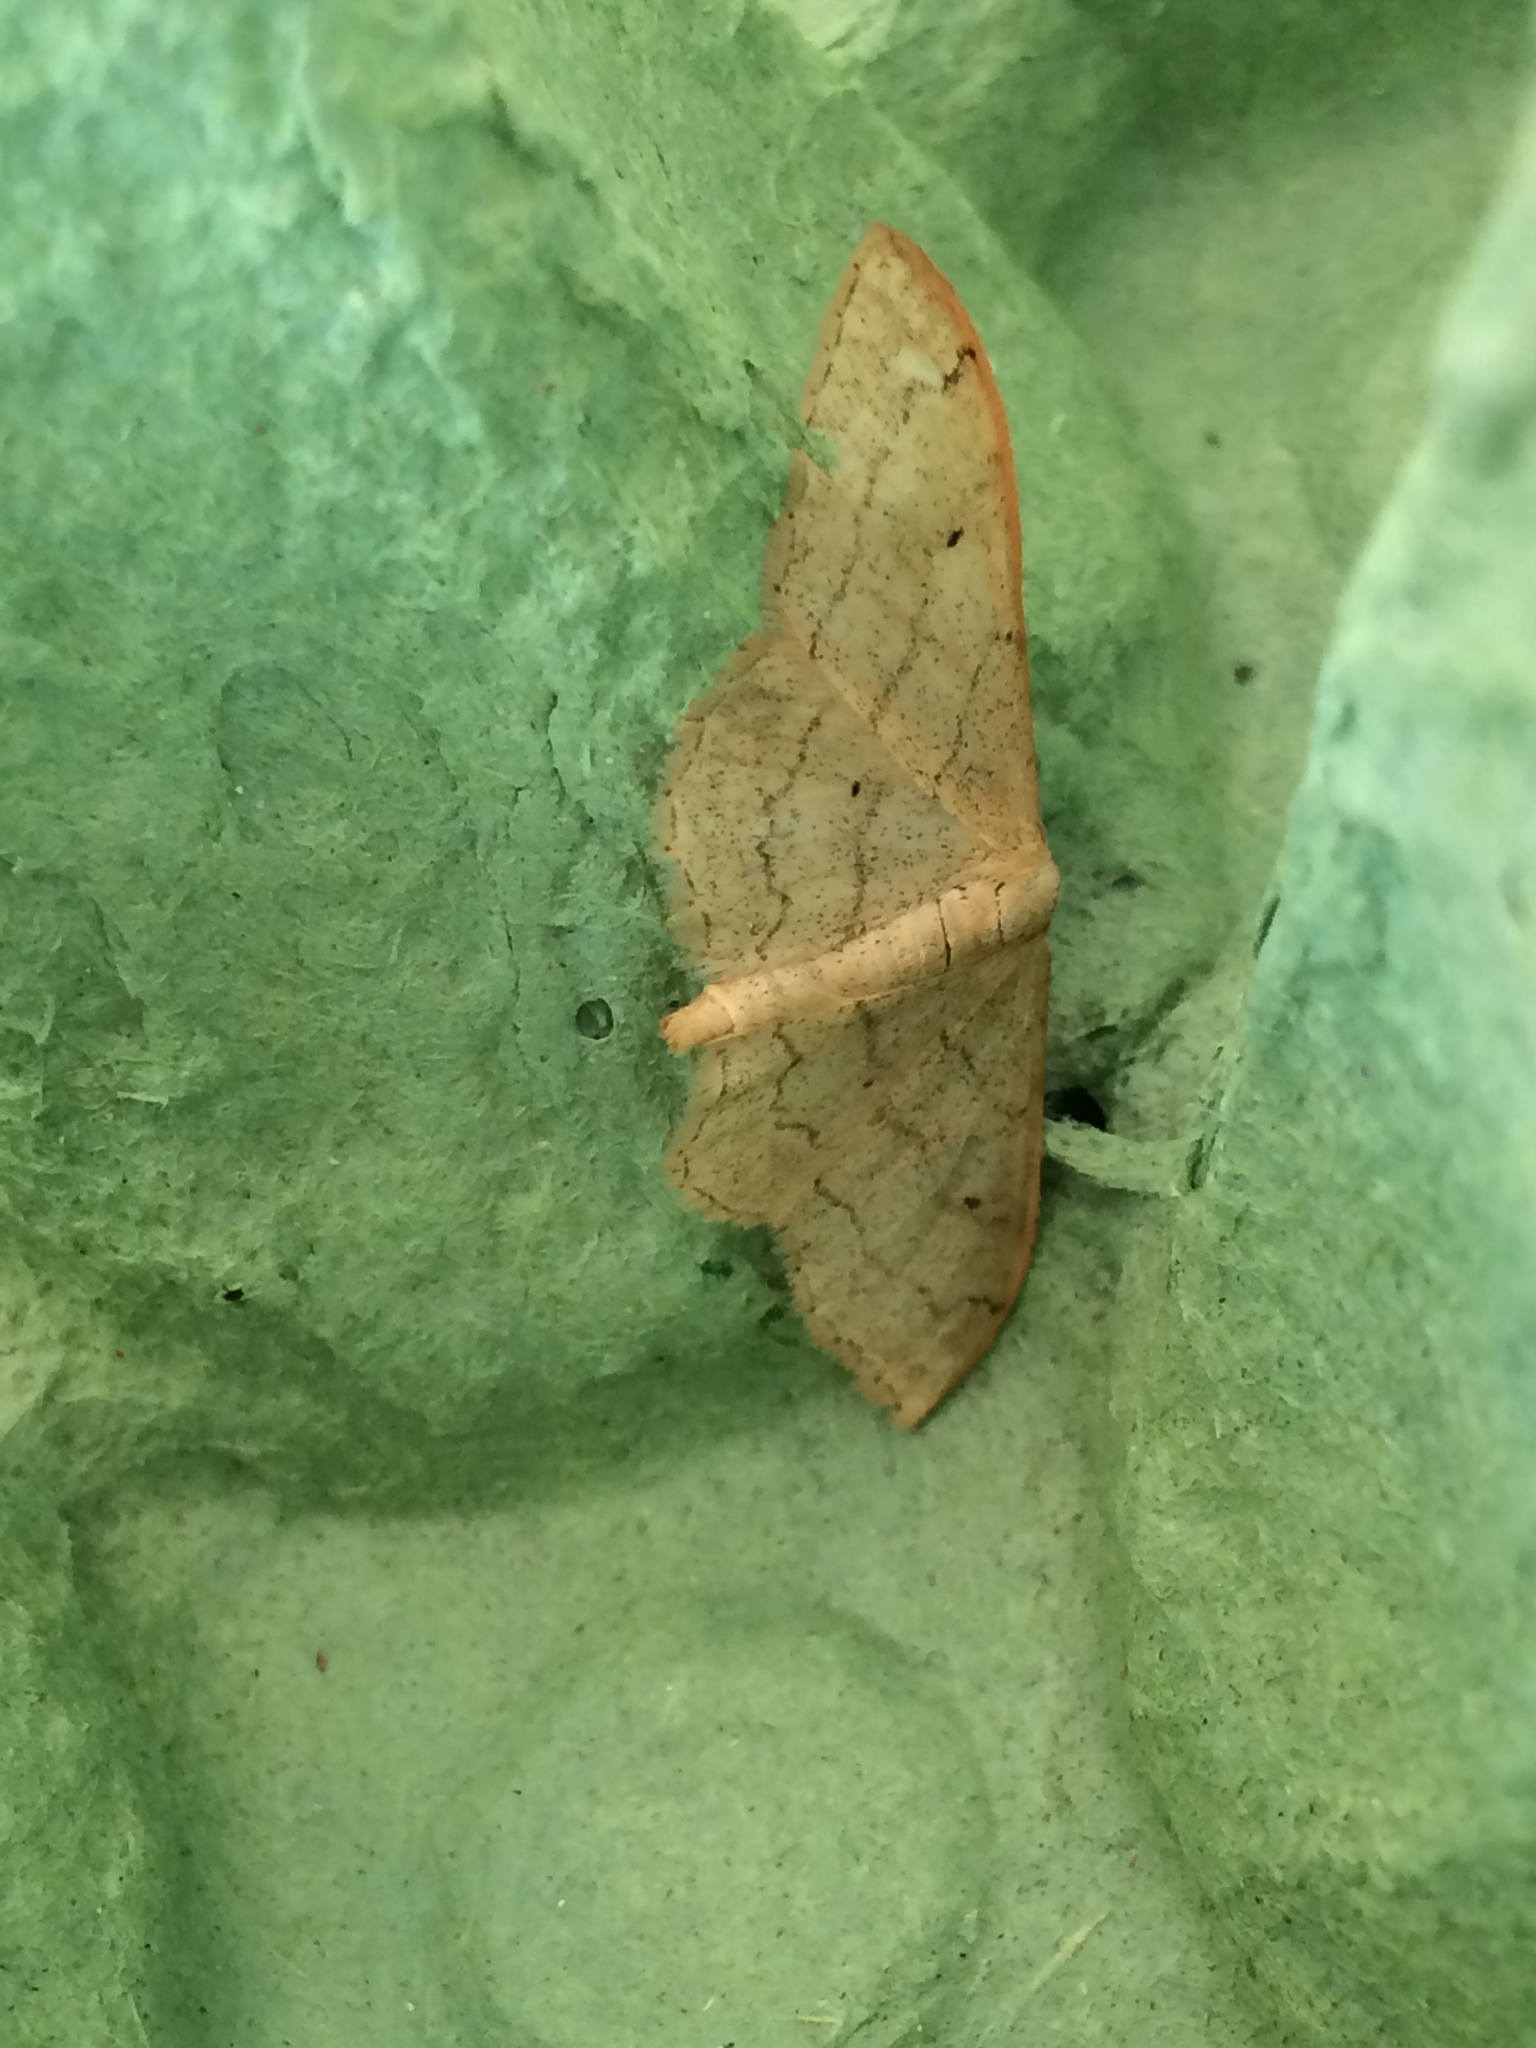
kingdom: Animalia
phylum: Arthropoda
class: Insecta
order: Lepidoptera
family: Geometridae
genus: Idaea
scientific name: Idaea aversata
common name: Riband wave
